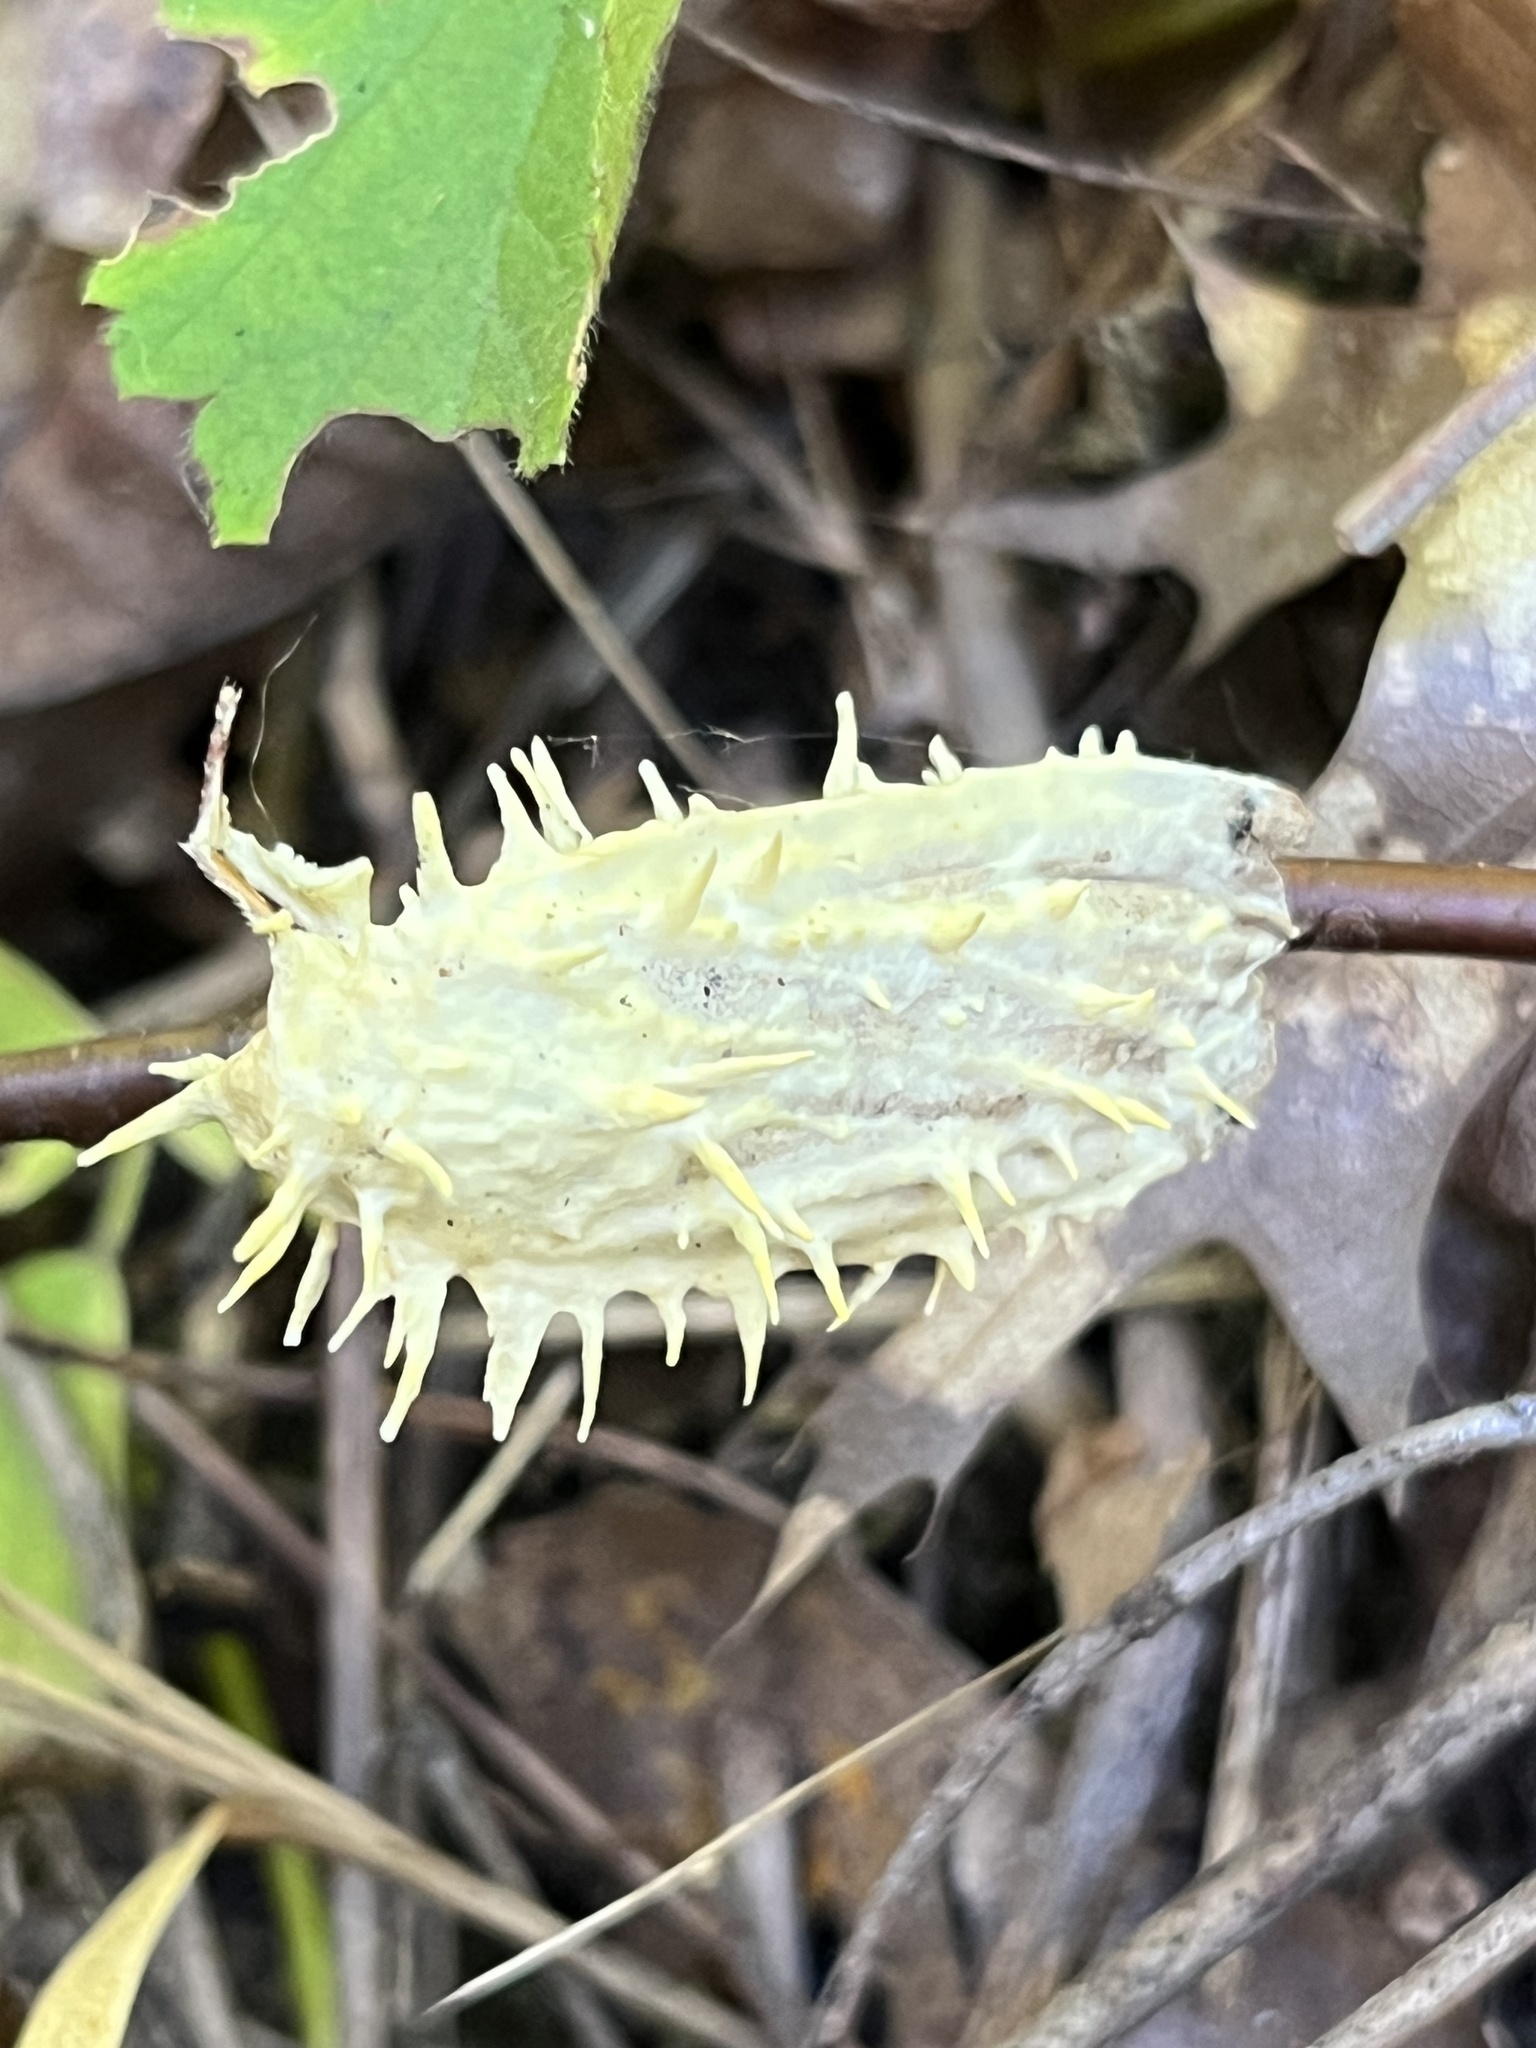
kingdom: Fungi
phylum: Ascomycota
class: Sordariomycetes
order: Hypocreales
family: Cordycipitaceae
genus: Akanthomyces
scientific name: Akanthomyces aculeatus
